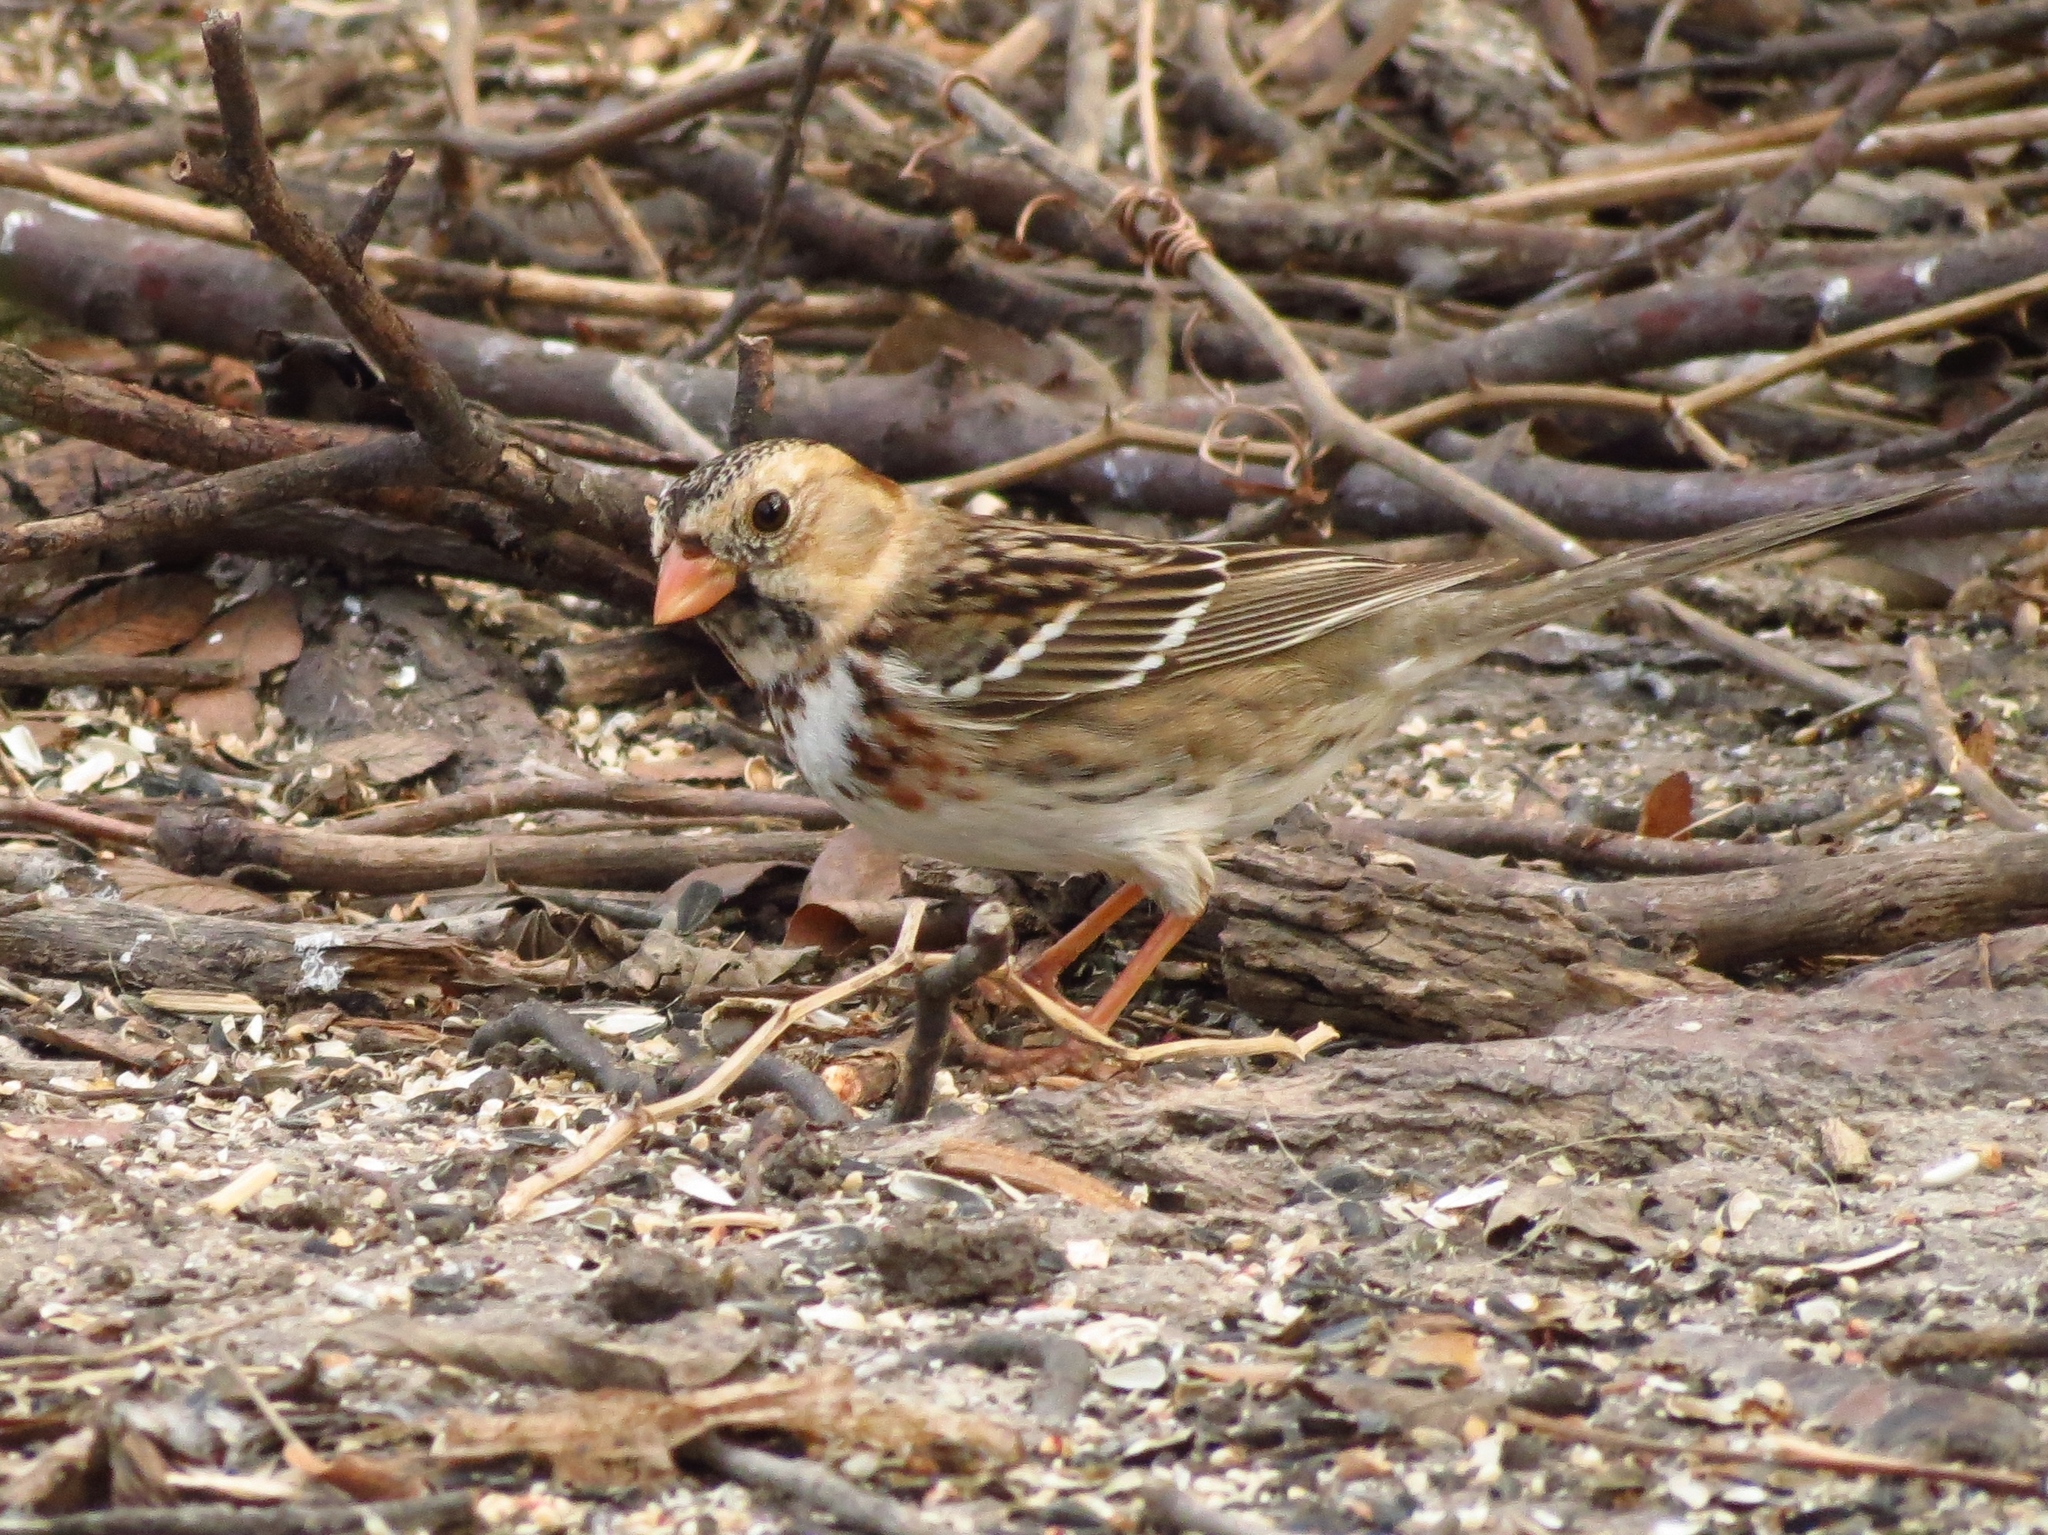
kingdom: Animalia
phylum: Chordata
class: Aves
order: Passeriformes
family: Passerellidae
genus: Zonotrichia
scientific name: Zonotrichia querula
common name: Harris's sparrow
